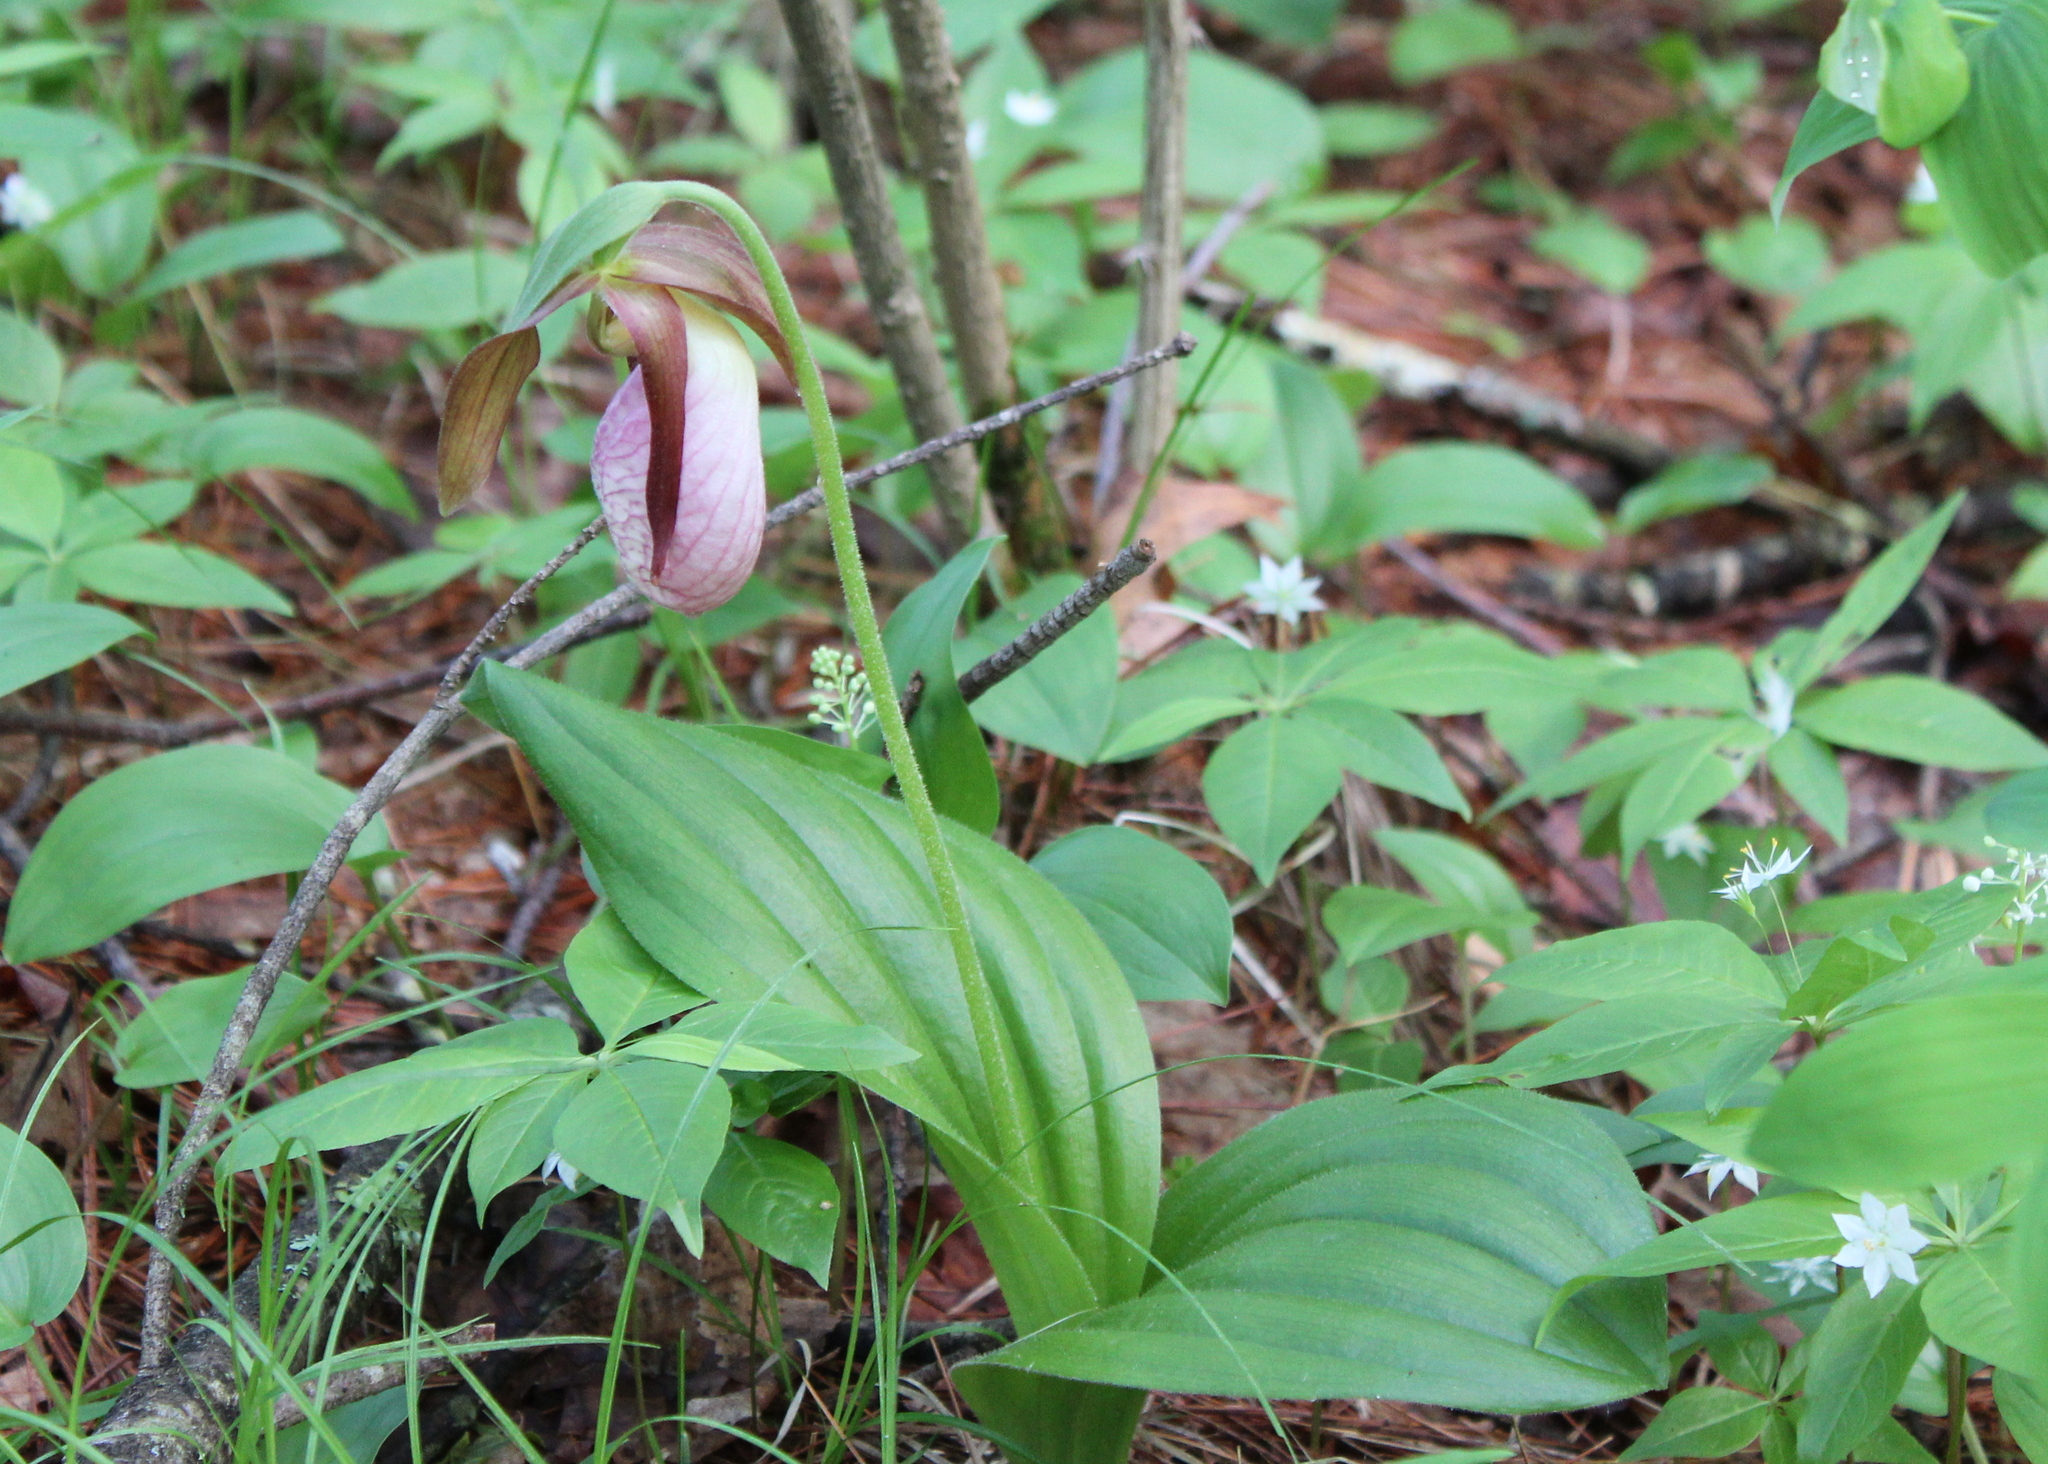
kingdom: Plantae
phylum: Tracheophyta
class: Liliopsida
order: Asparagales
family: Orchidaceae
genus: Cypripedium
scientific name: Cypripedium acaule
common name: Pink lady's-slipper
